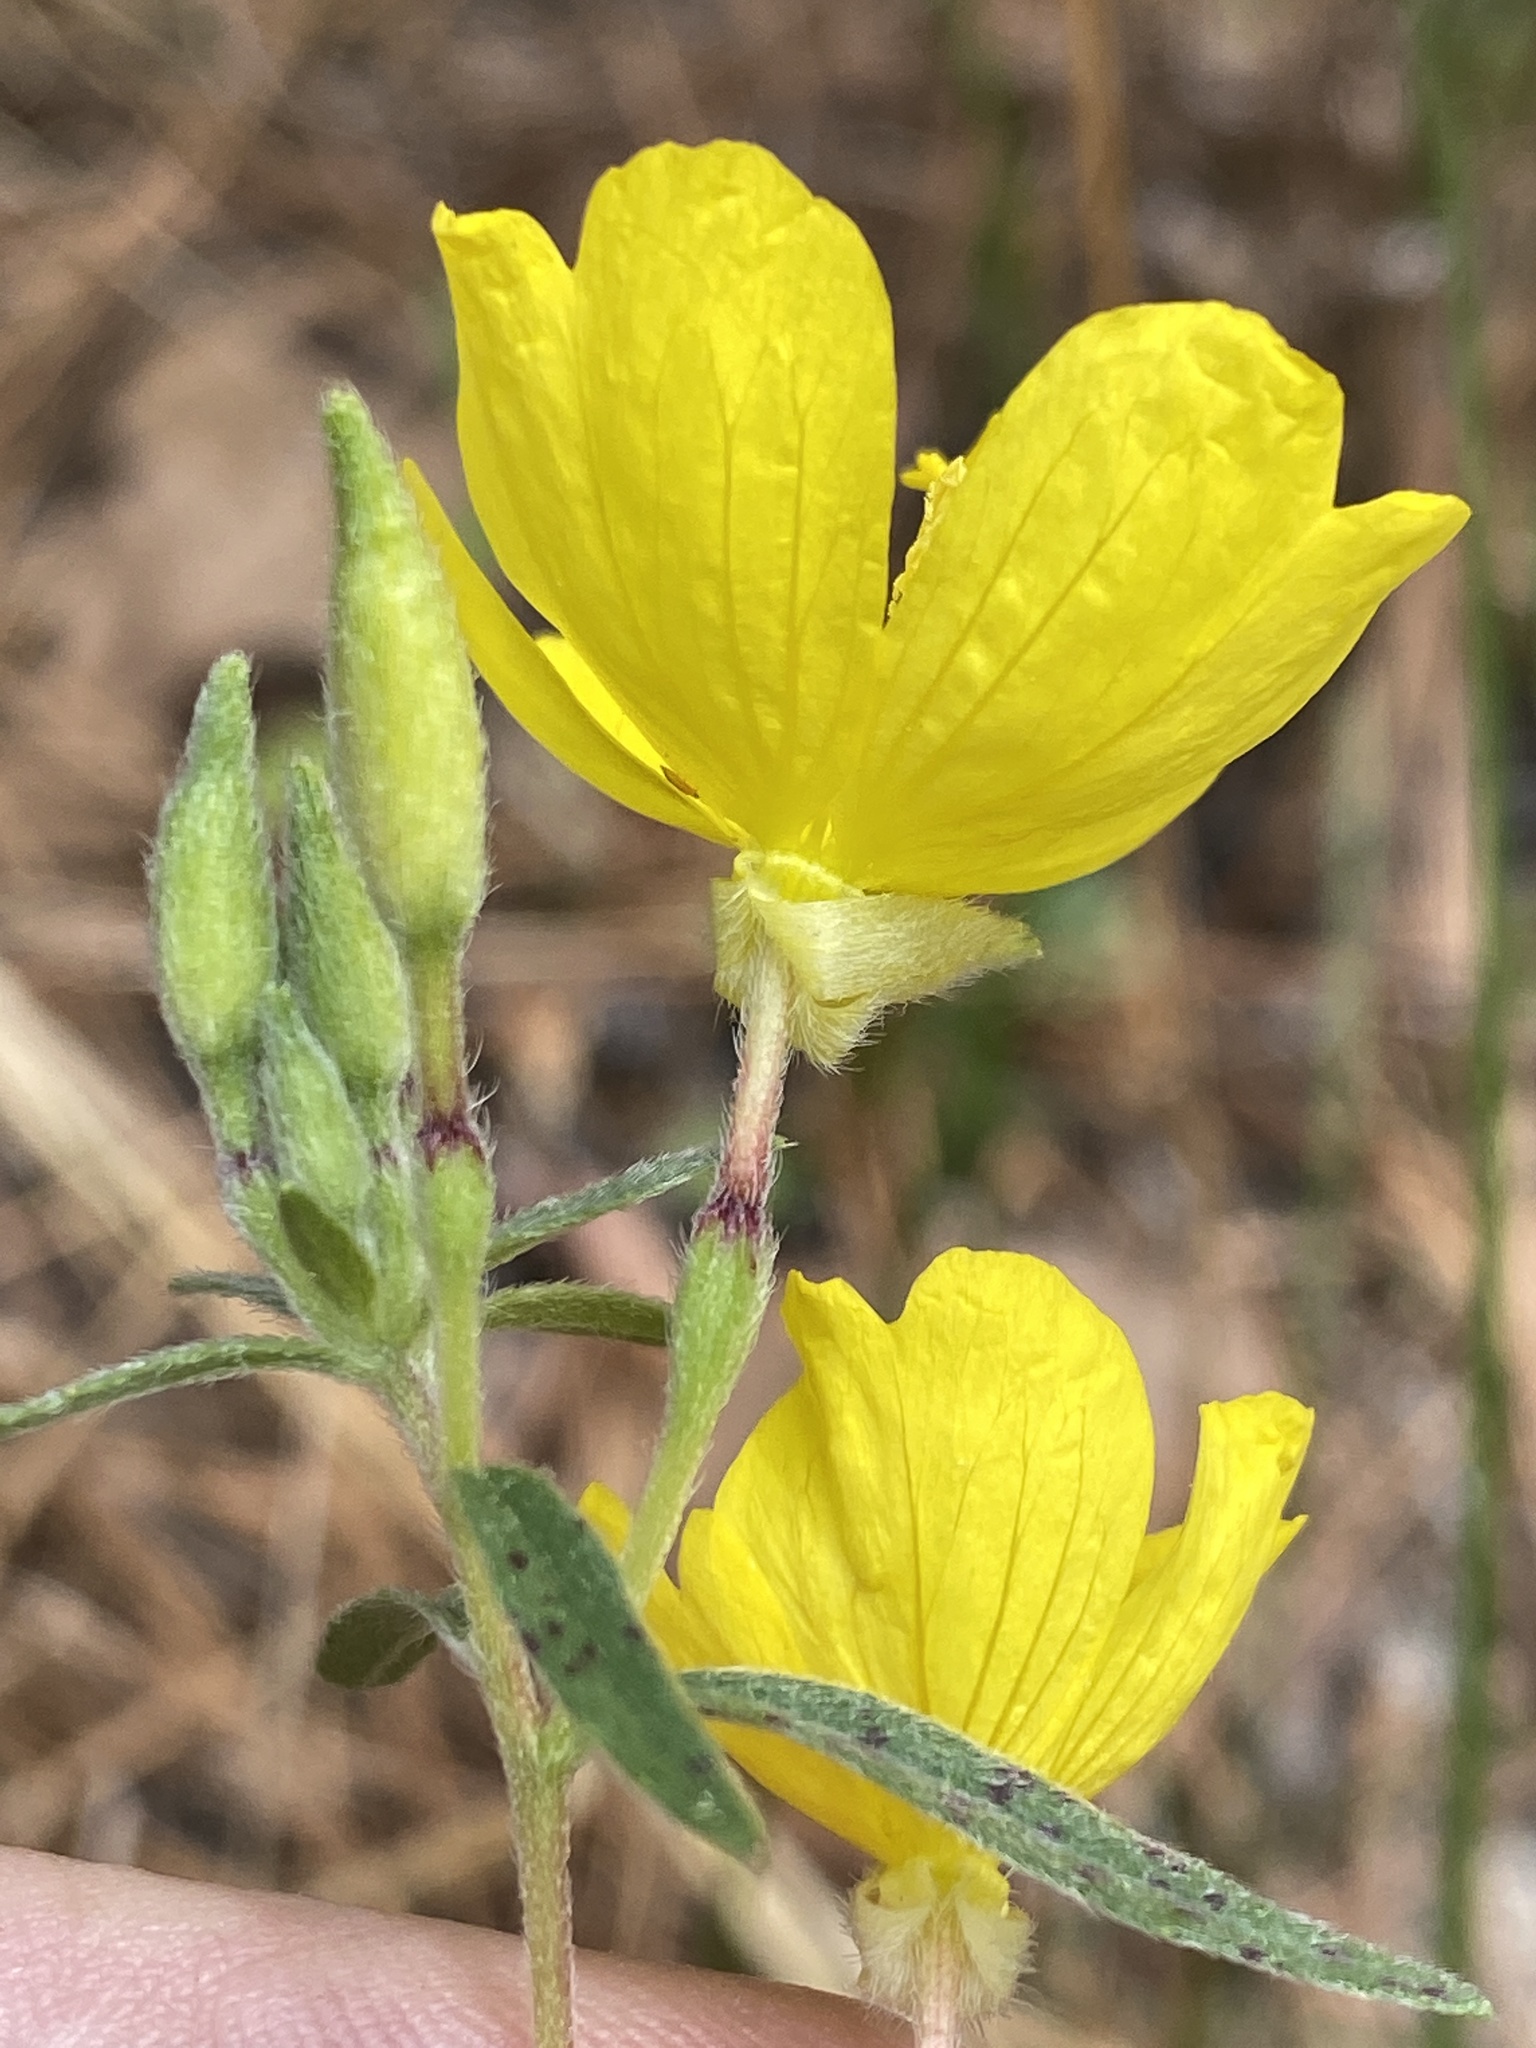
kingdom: Plantae
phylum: Tracheophyta
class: Magnoliopsida
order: Myrtales
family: Onagraceae
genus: Oenothera
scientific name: Oenothera fruticosa
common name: Southern sundrops
